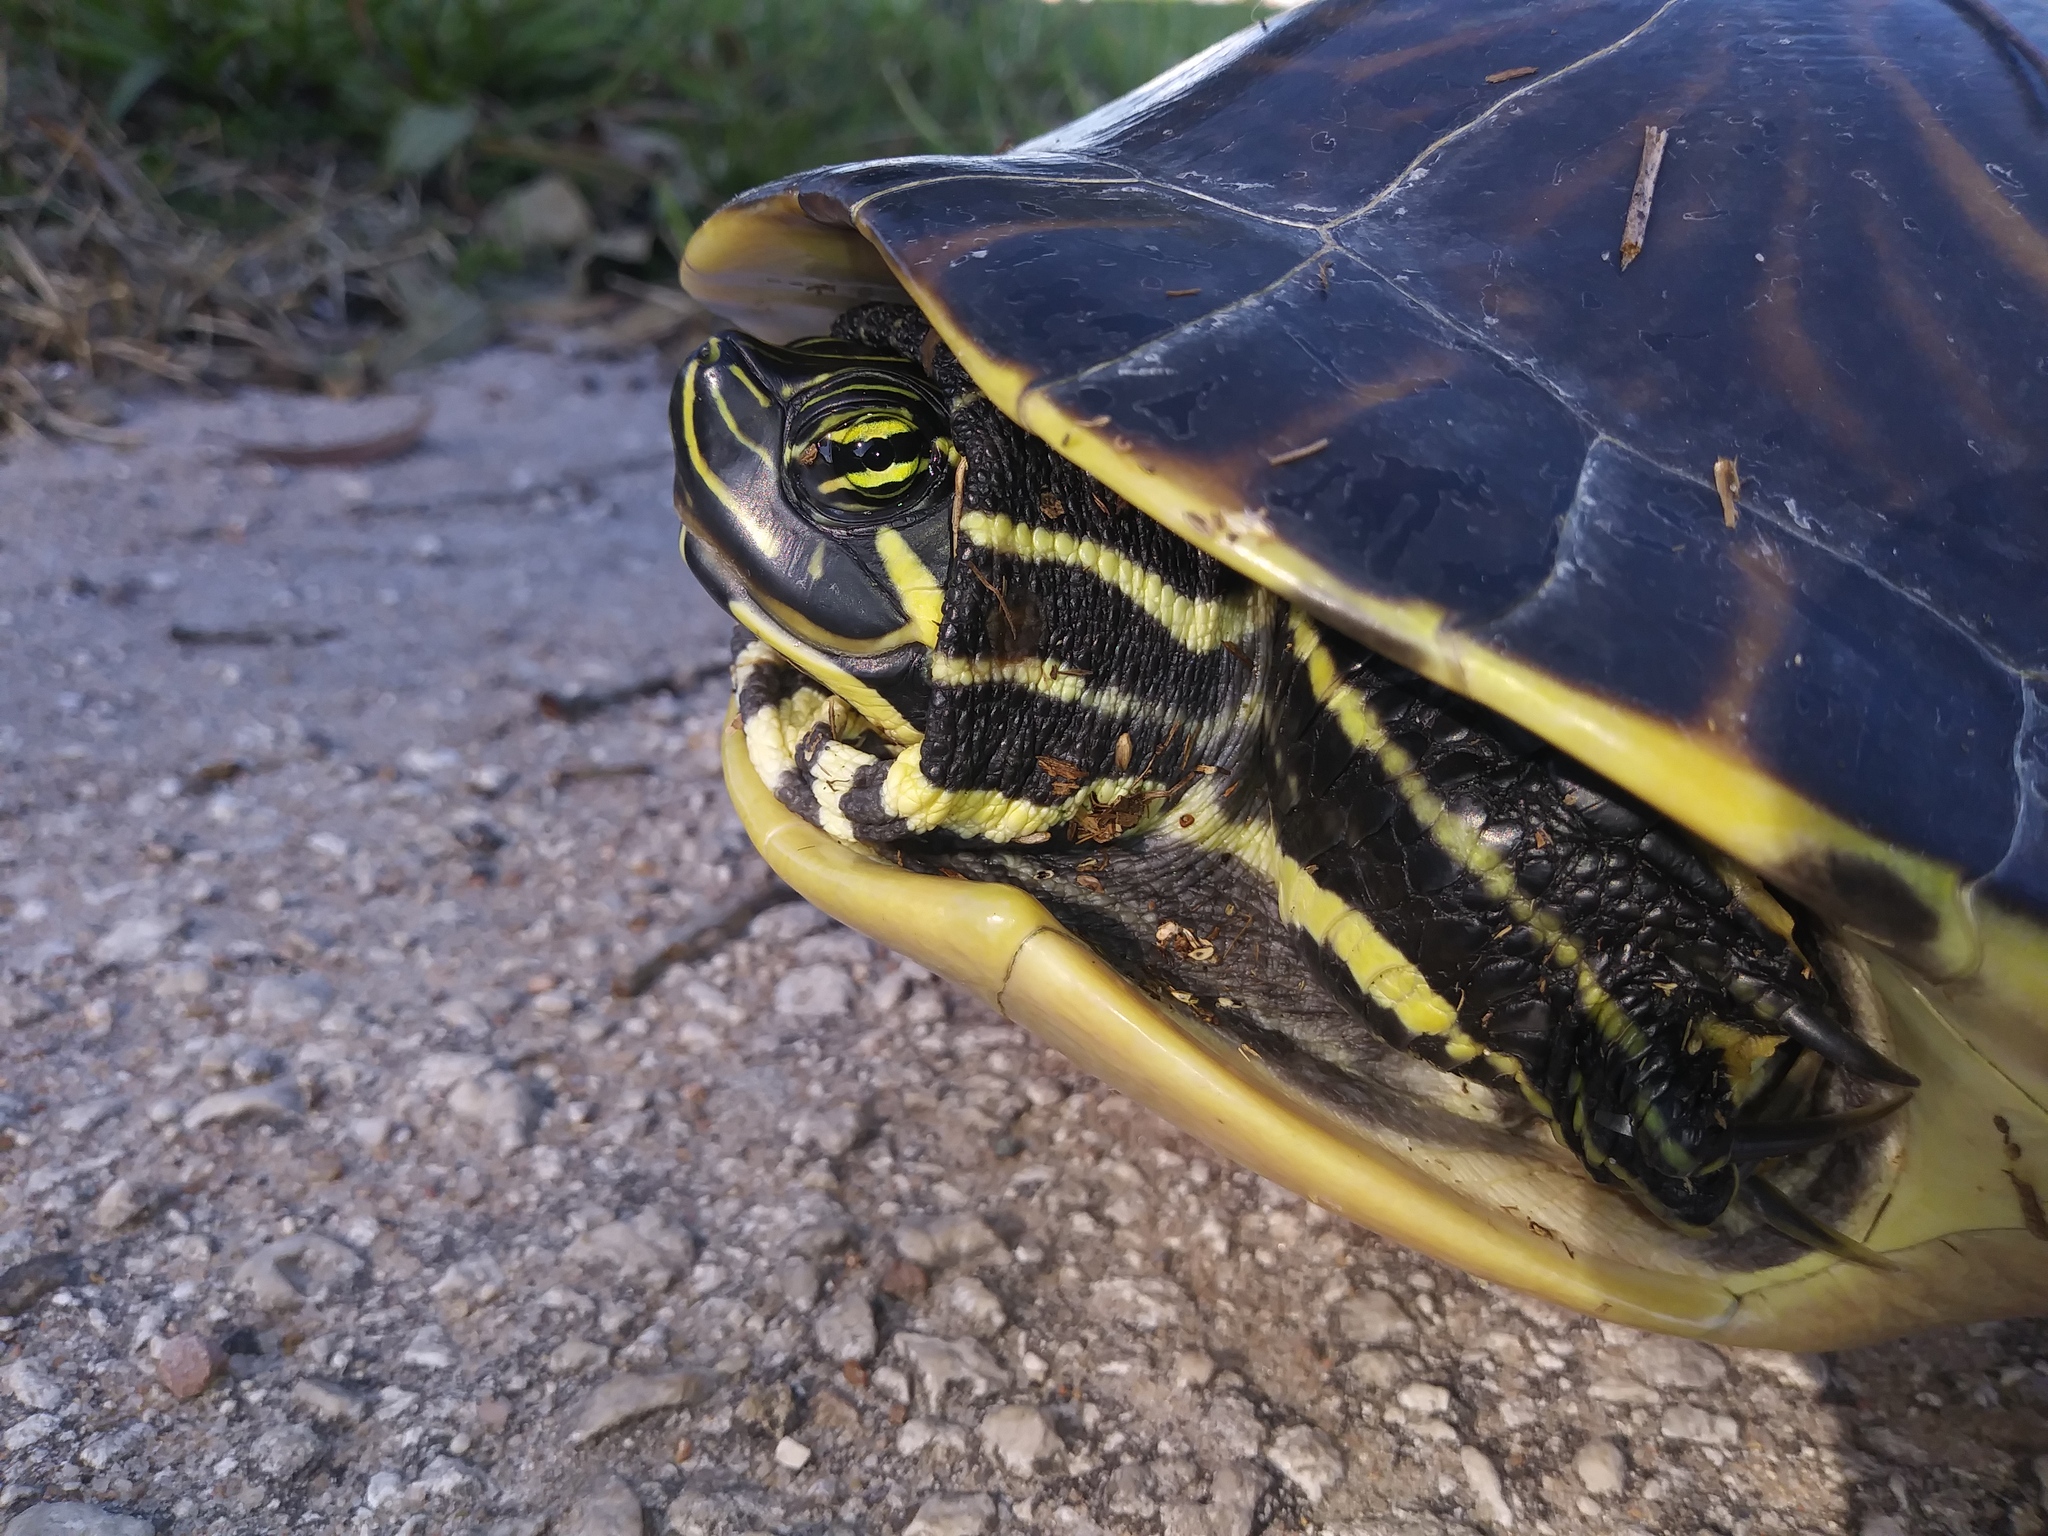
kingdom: Animalia
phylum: Chordata
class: Testudines
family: Emydidae
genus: Pseudemys
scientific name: Pseudemys peninsularis
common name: Peninsula cooter
